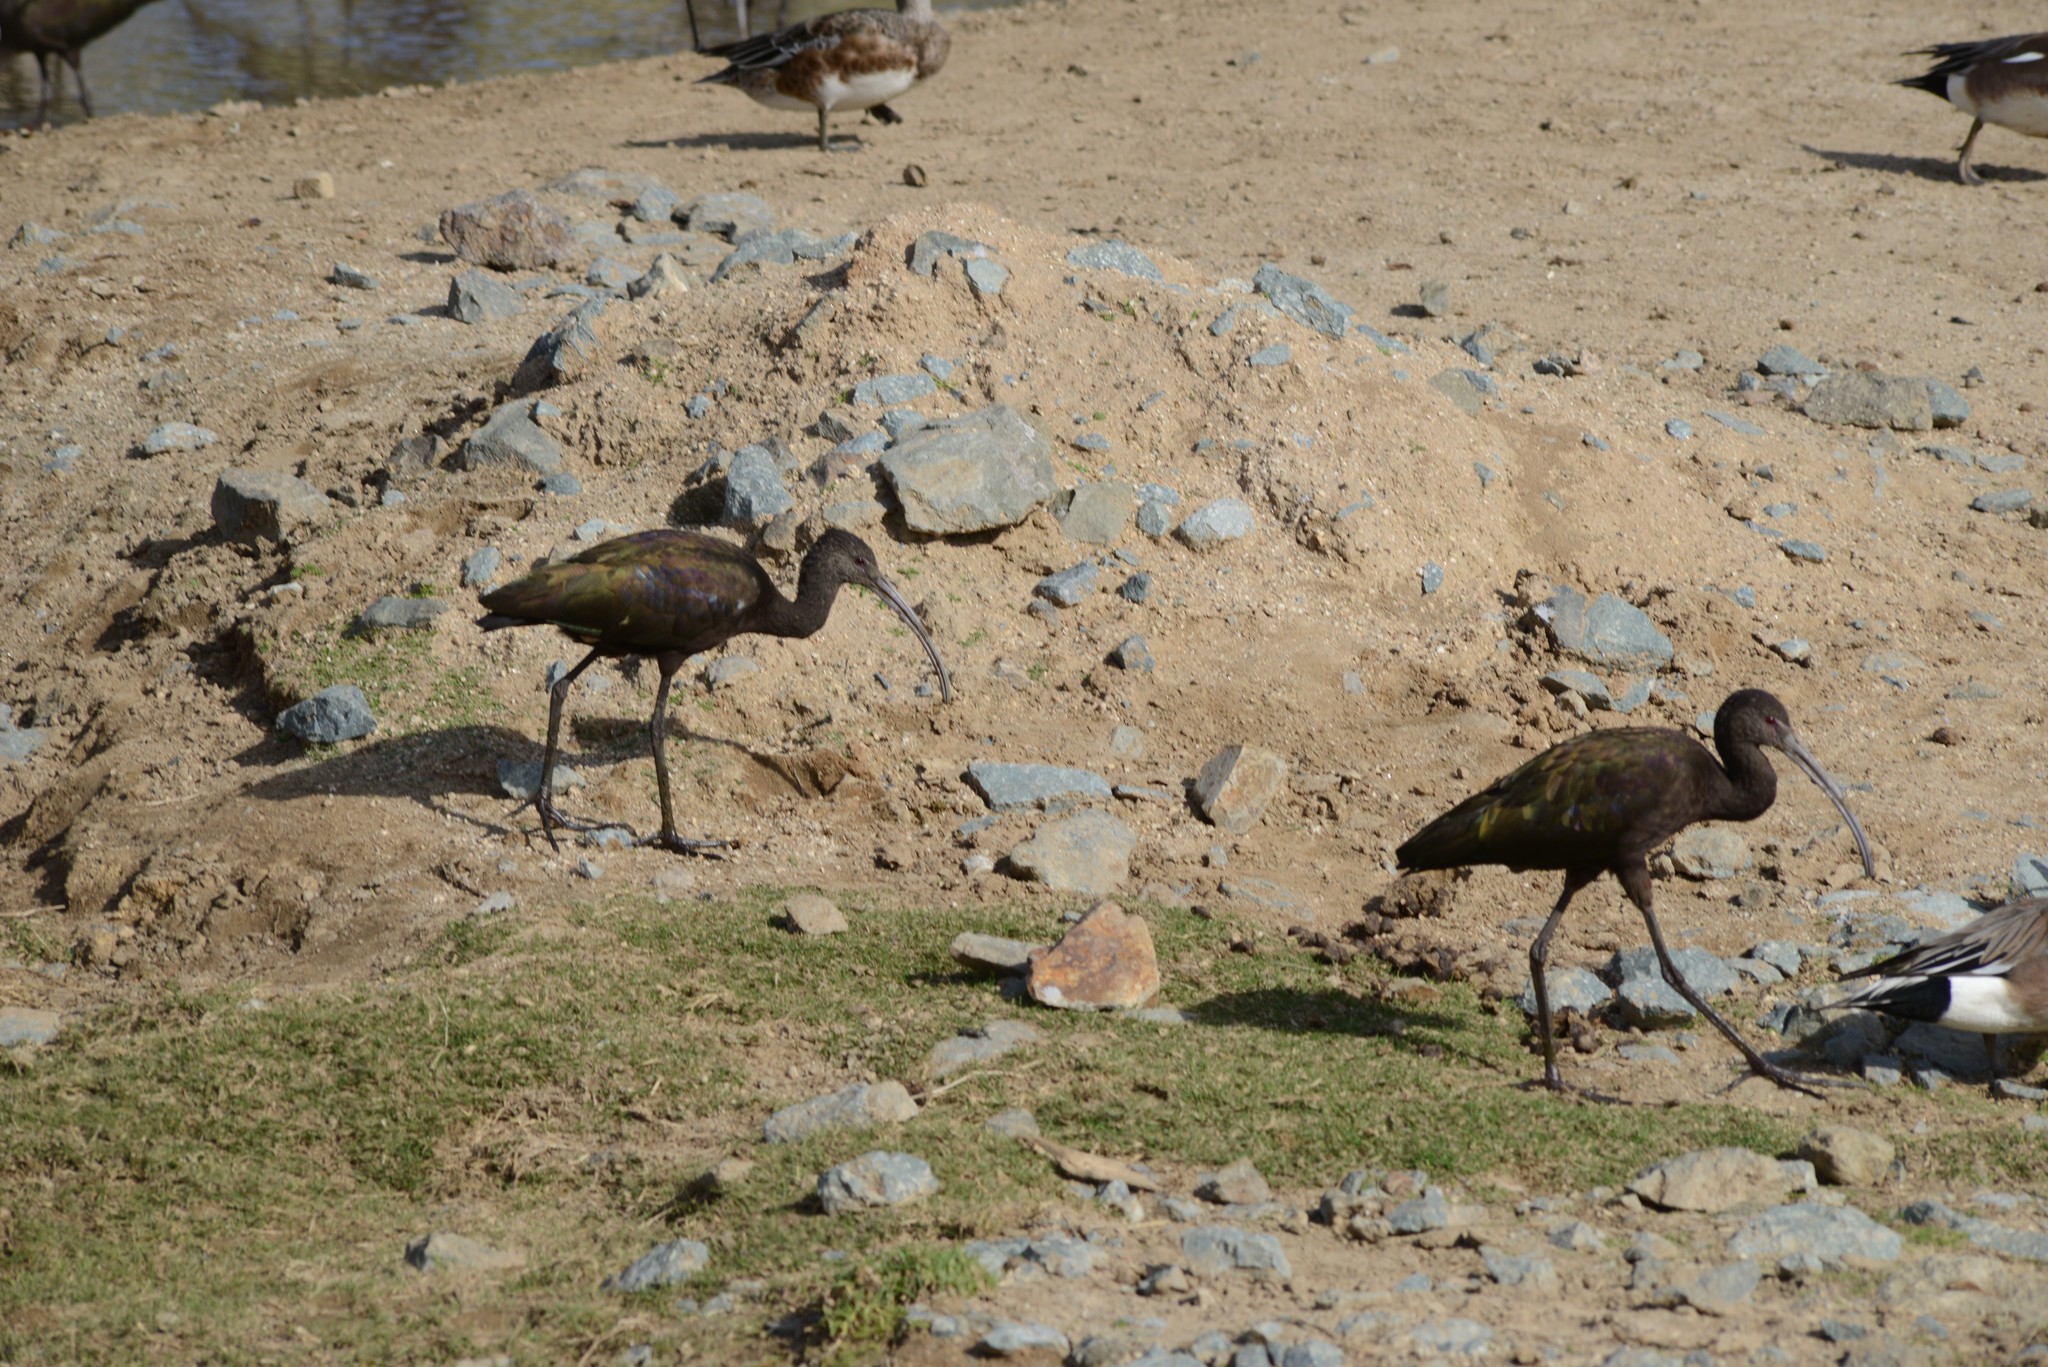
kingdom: Animalia
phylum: Chordata
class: Aves
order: Pelecaniformes
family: Threskiornithidae
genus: Plegadis
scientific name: Plegadis chihi
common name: White-faced ibis
